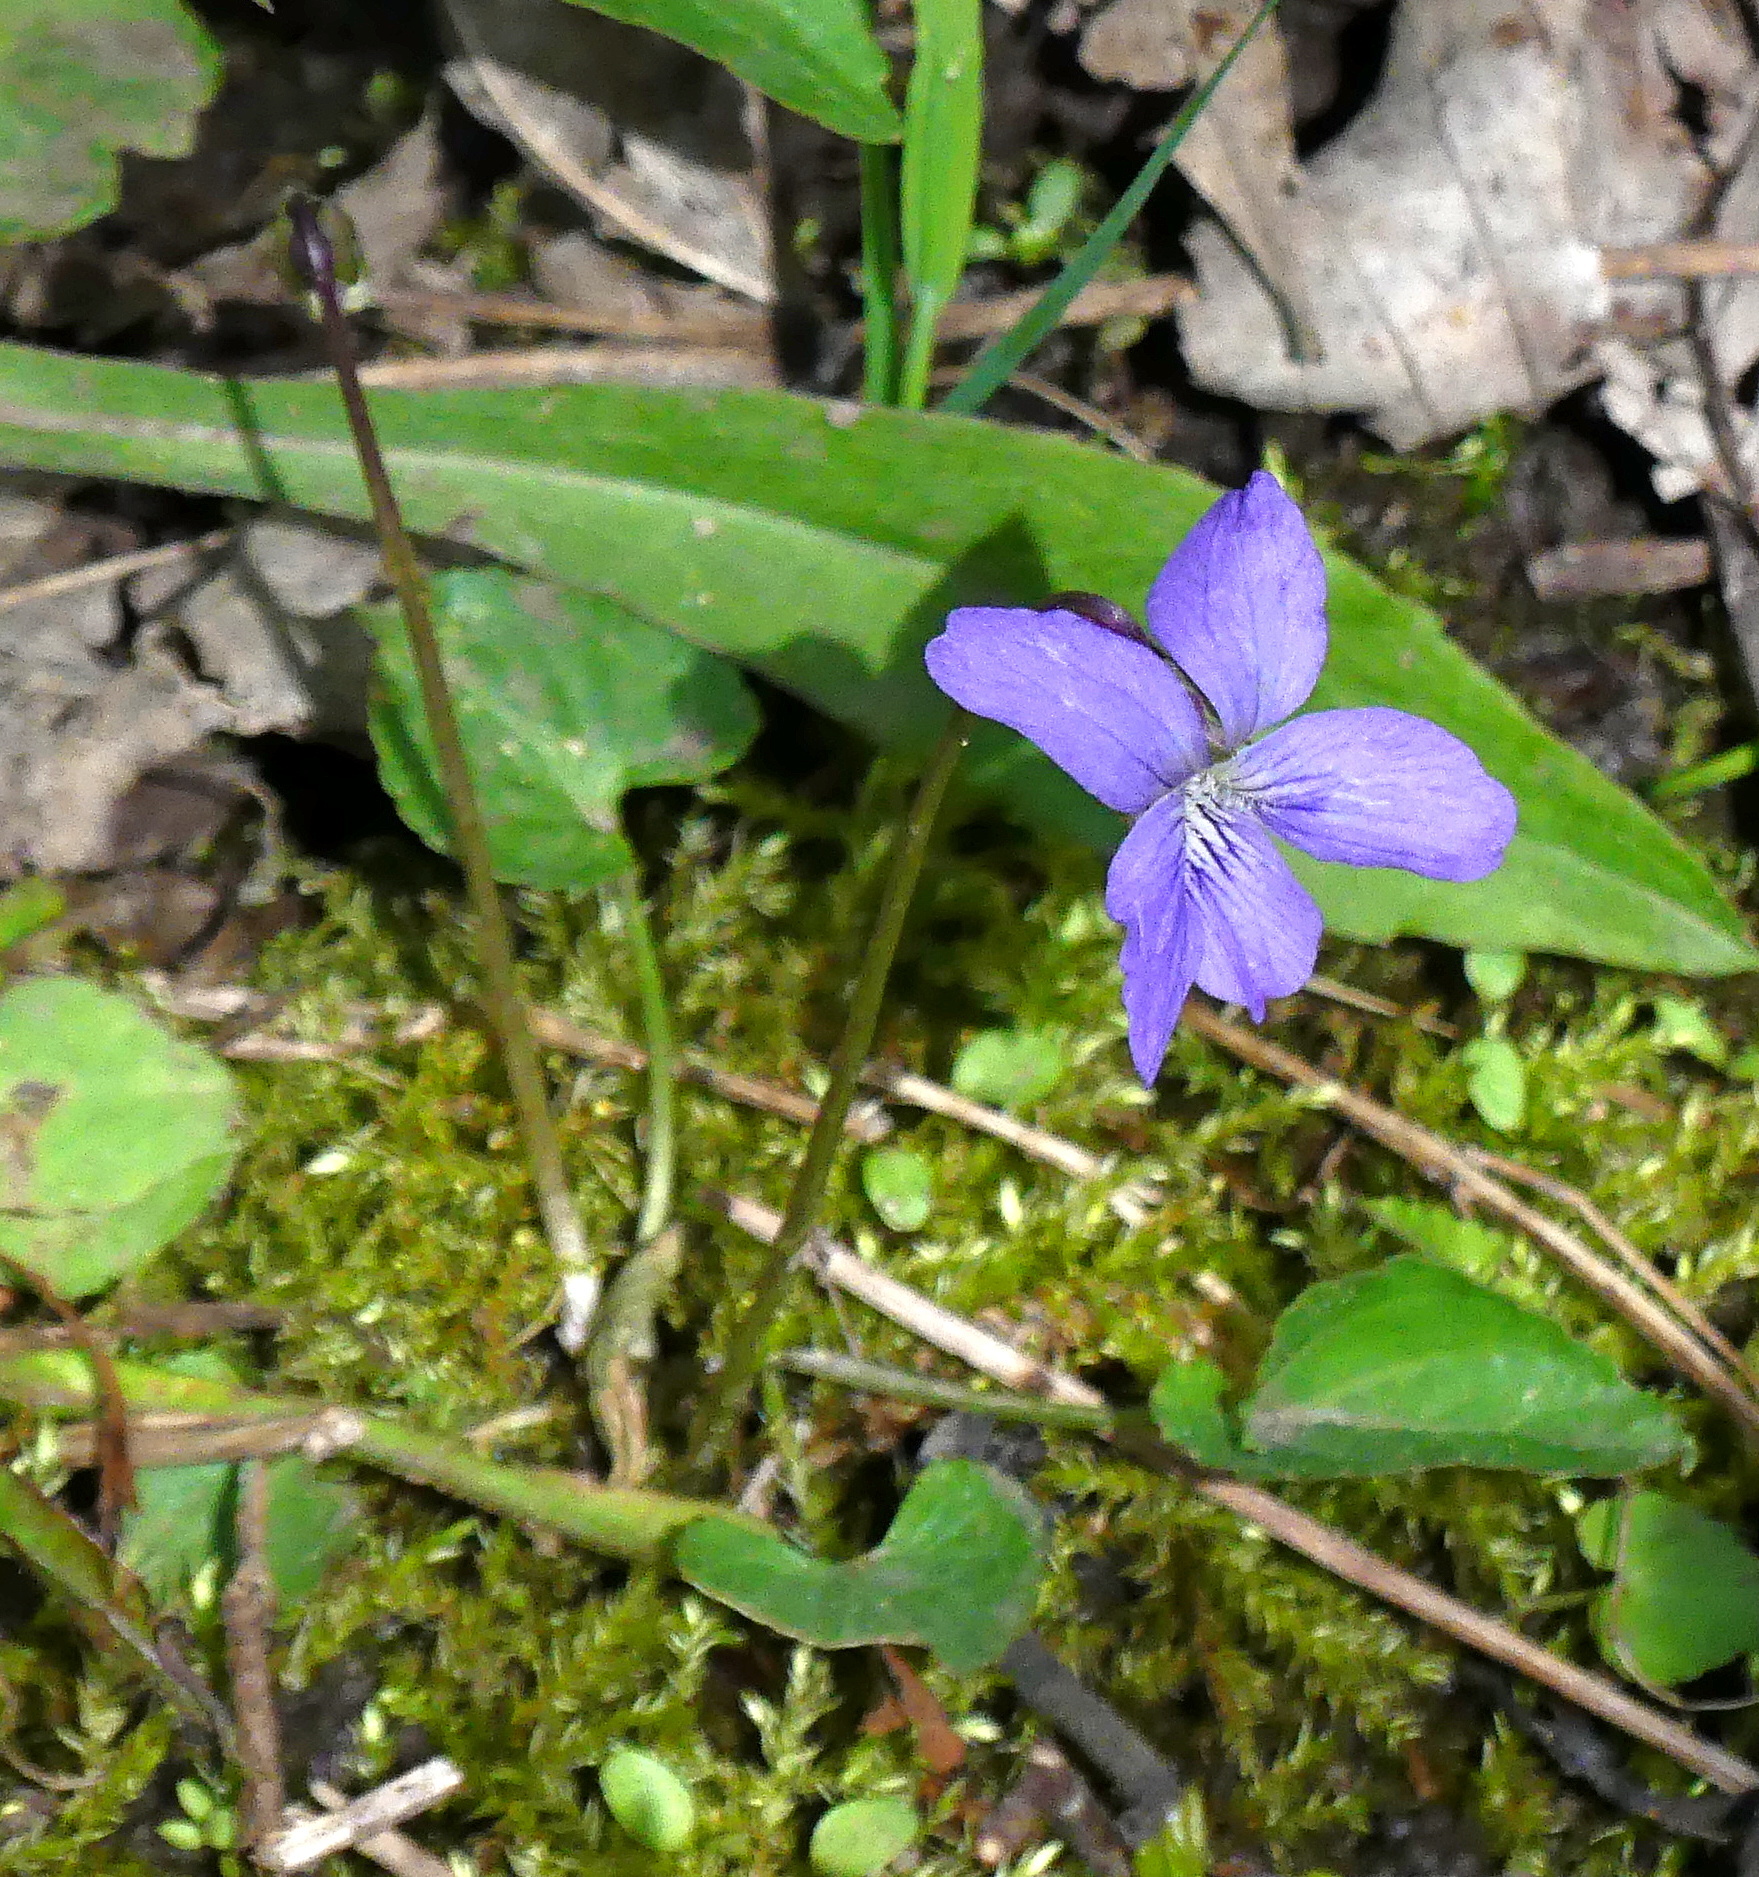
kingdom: Plantae
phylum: Tracheophyta
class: Magnoliopsida
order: Malpighiales
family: Violaceae
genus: Viola
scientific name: Viola cucullata
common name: Marsh blue violet
